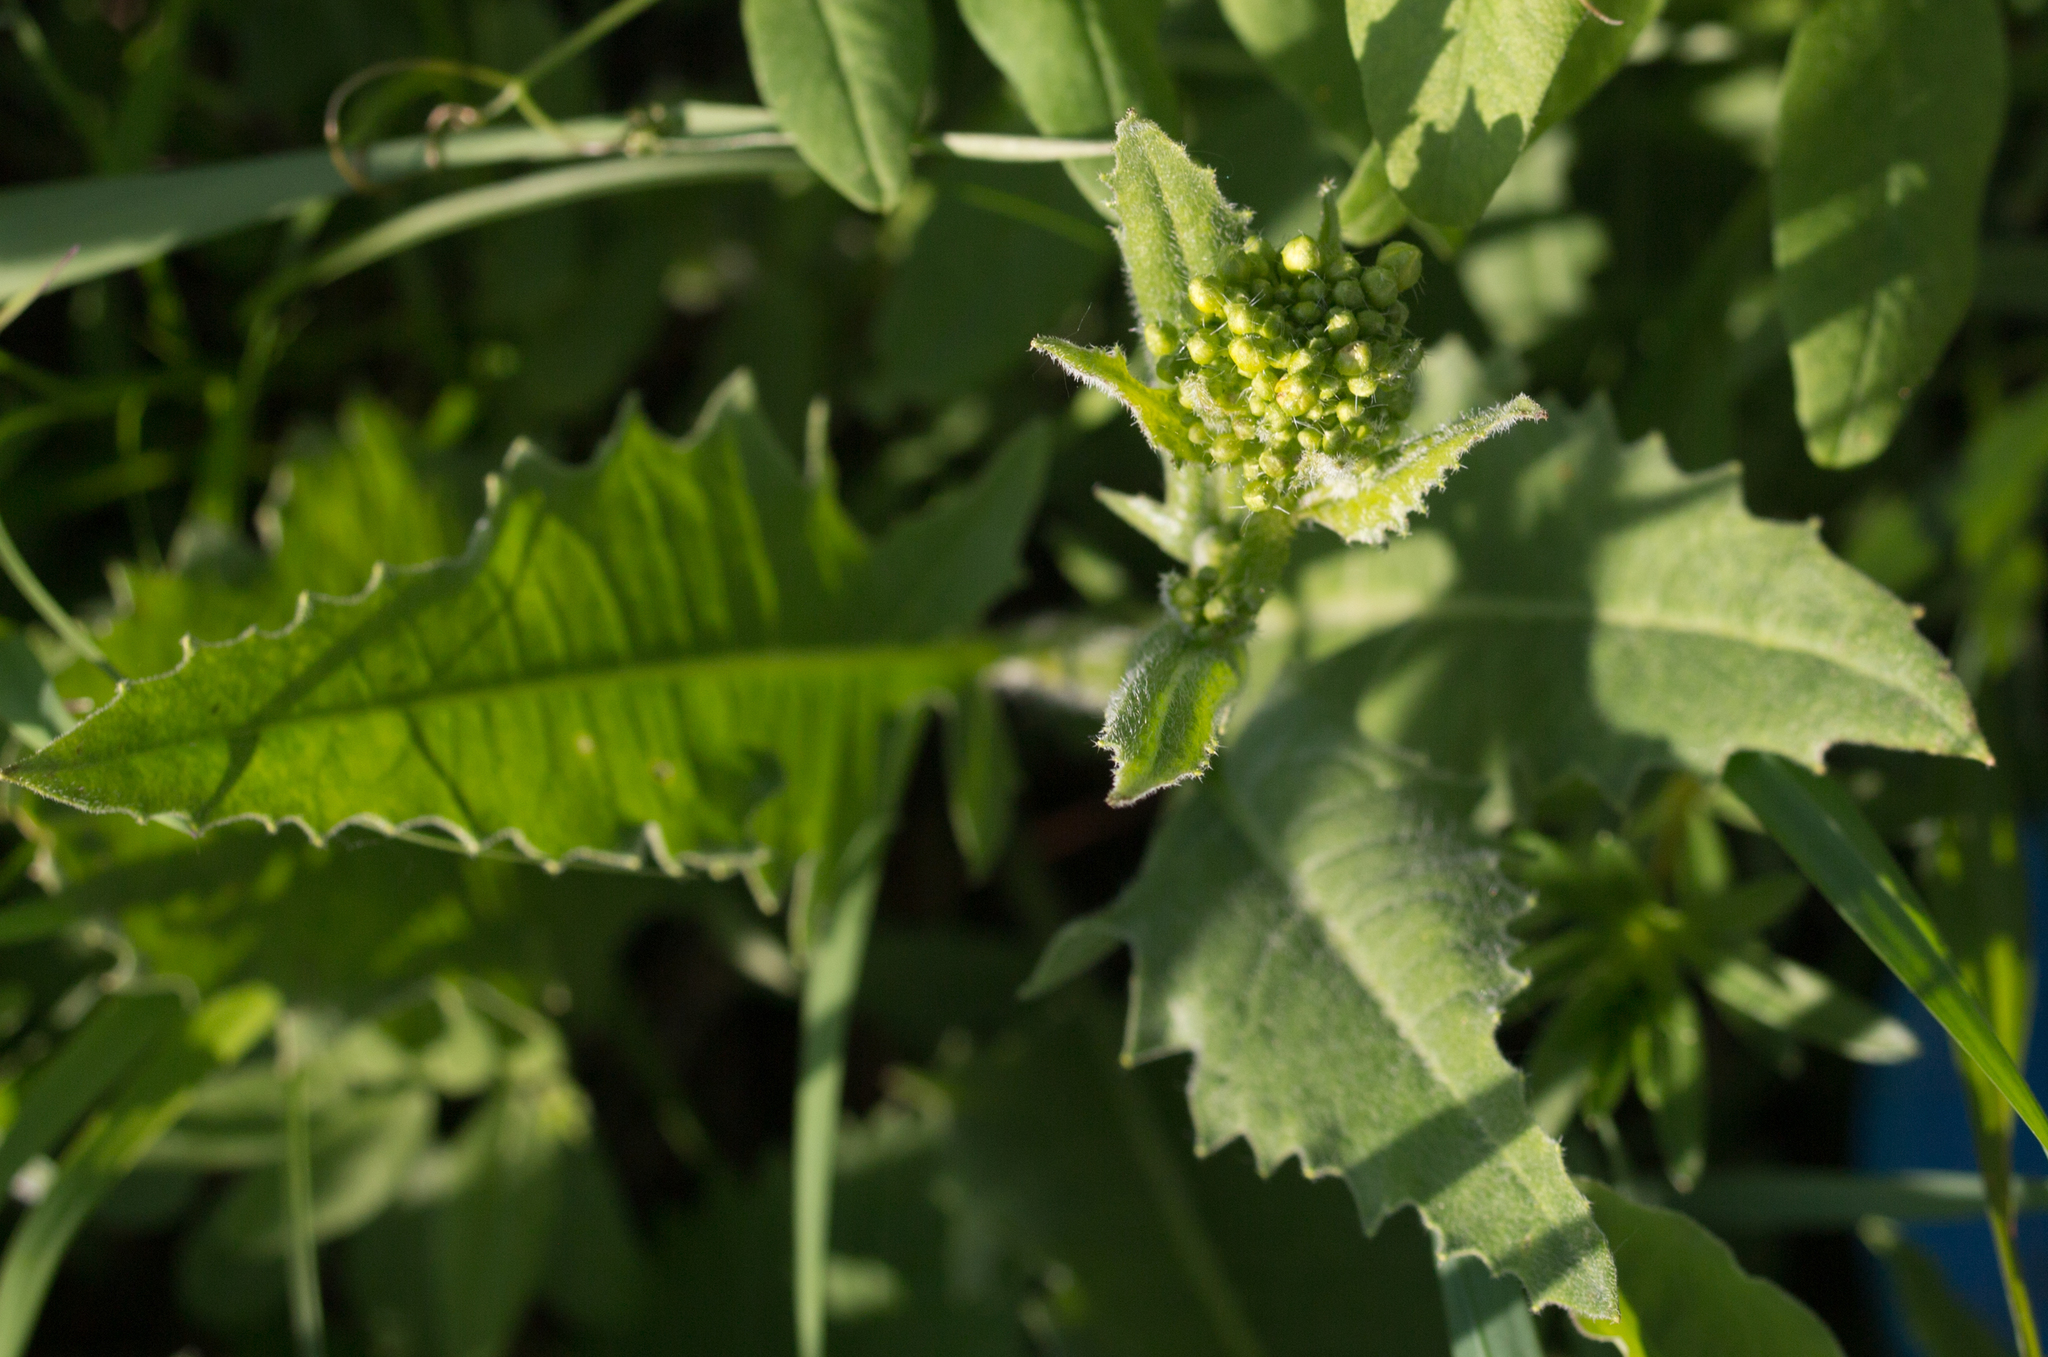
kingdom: Plantae
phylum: Tracheophyta
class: Magnoliopsida
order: Brassicales
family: Brassicaceae
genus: Bunias
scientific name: Bunias orientalis
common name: Warty-cabbage
